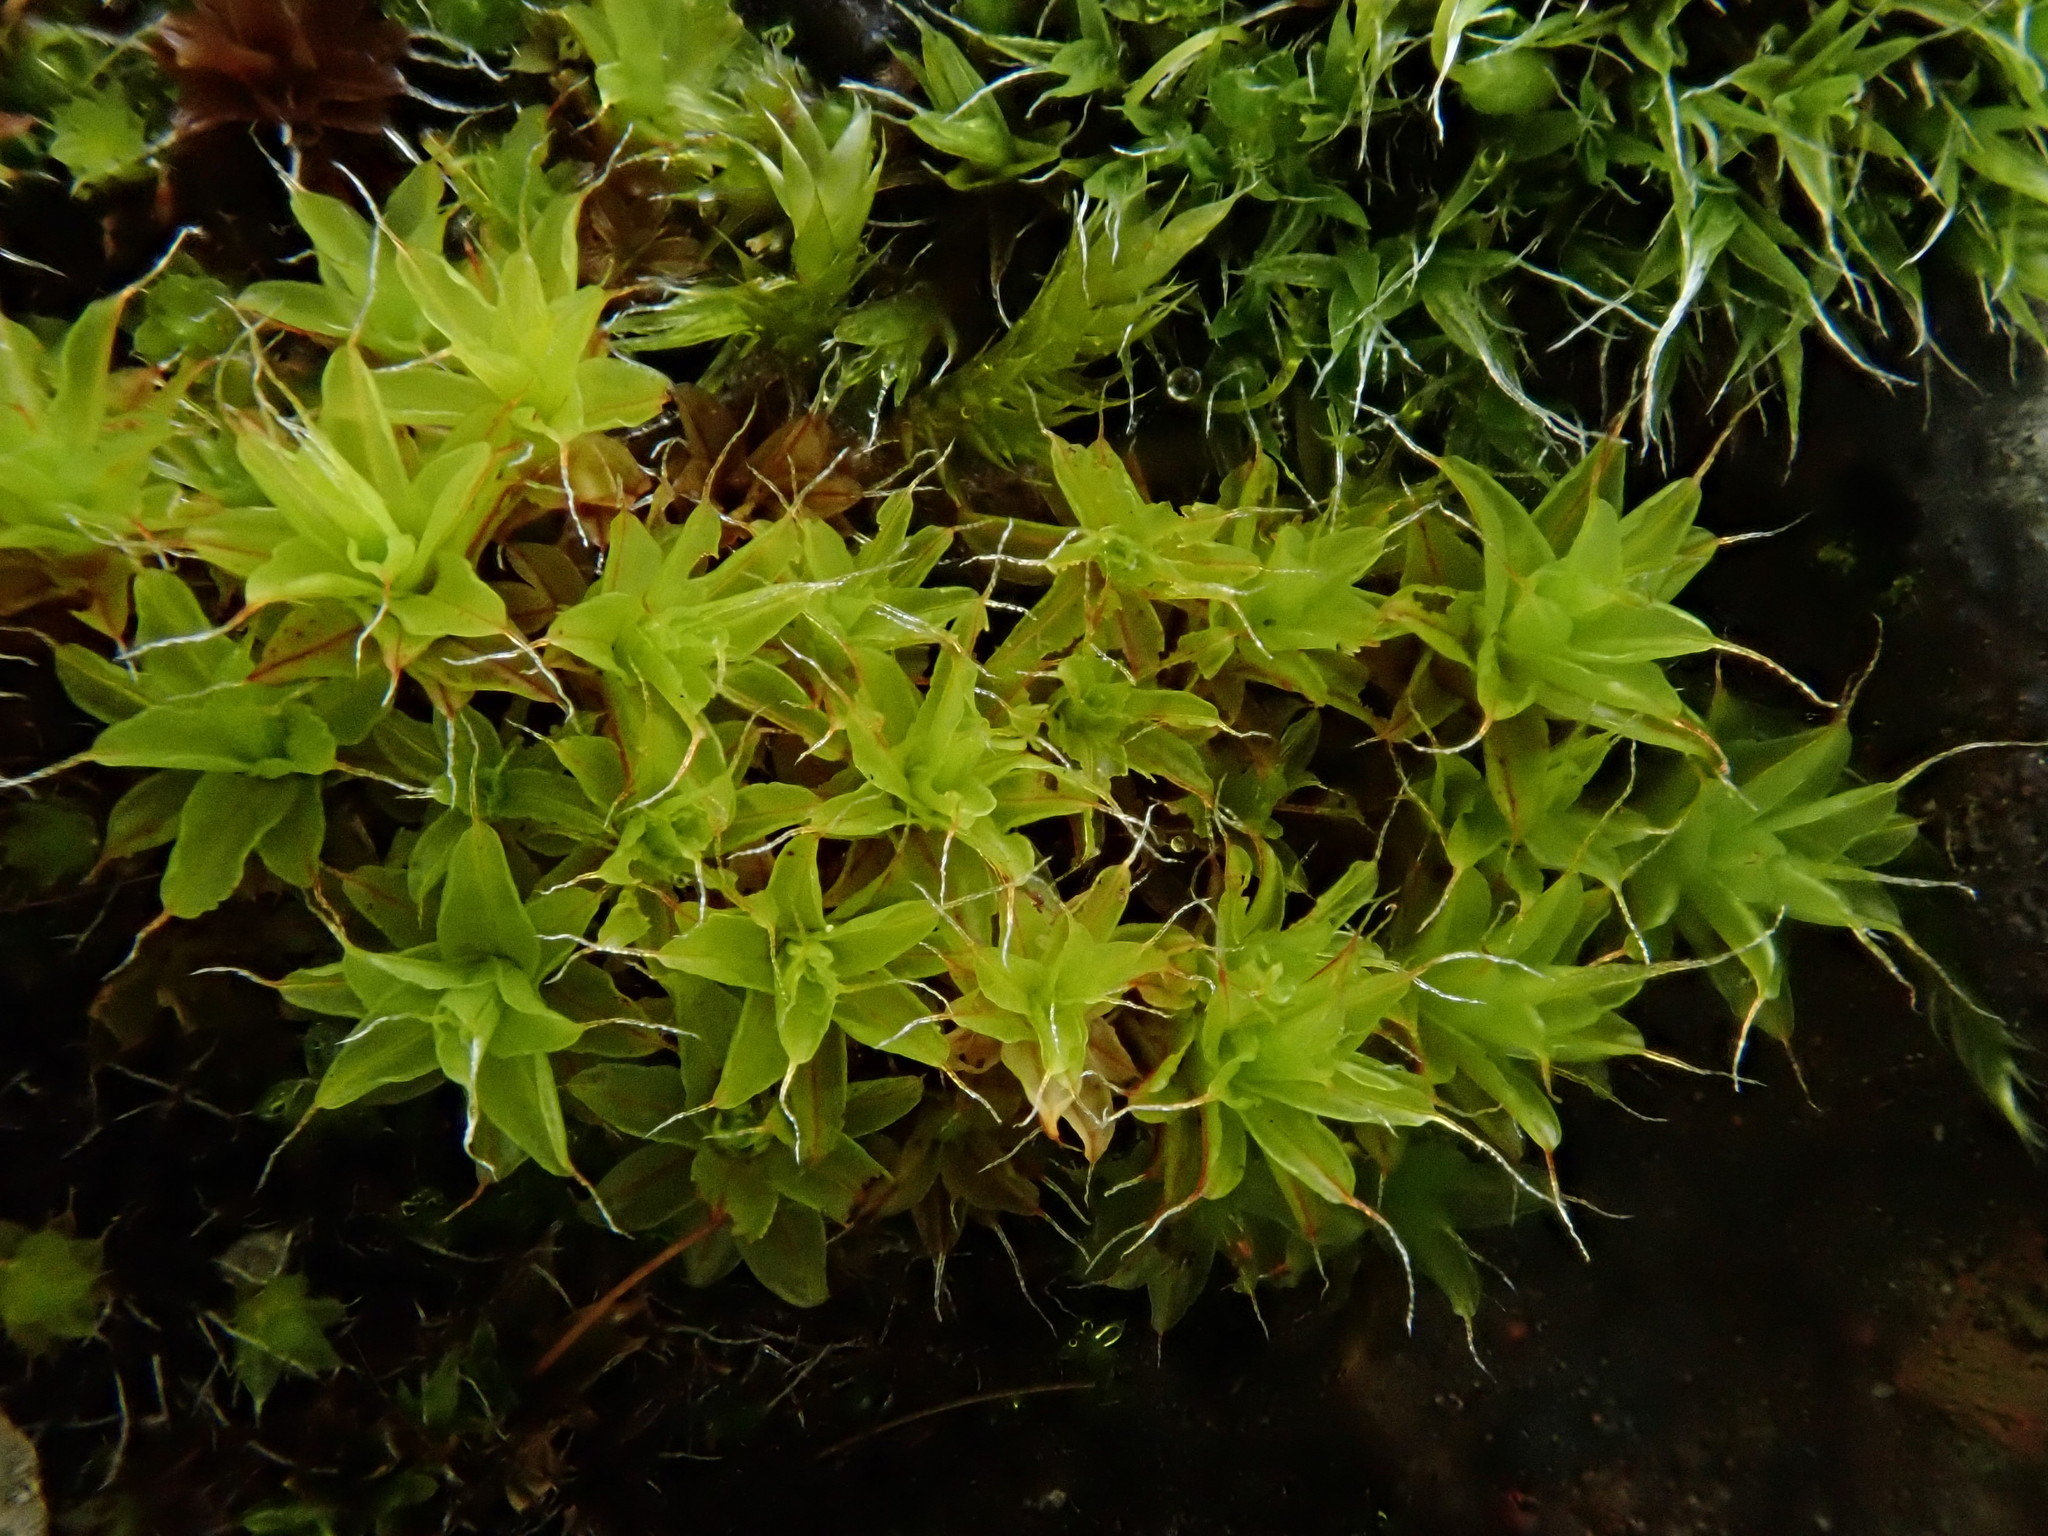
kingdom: Plantae
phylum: Bryophyta
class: Bryopsida
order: Pottiales
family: Pottiaceae
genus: Syntrichia
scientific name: Syntrichia ruralis
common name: Sidewalk screw moss
